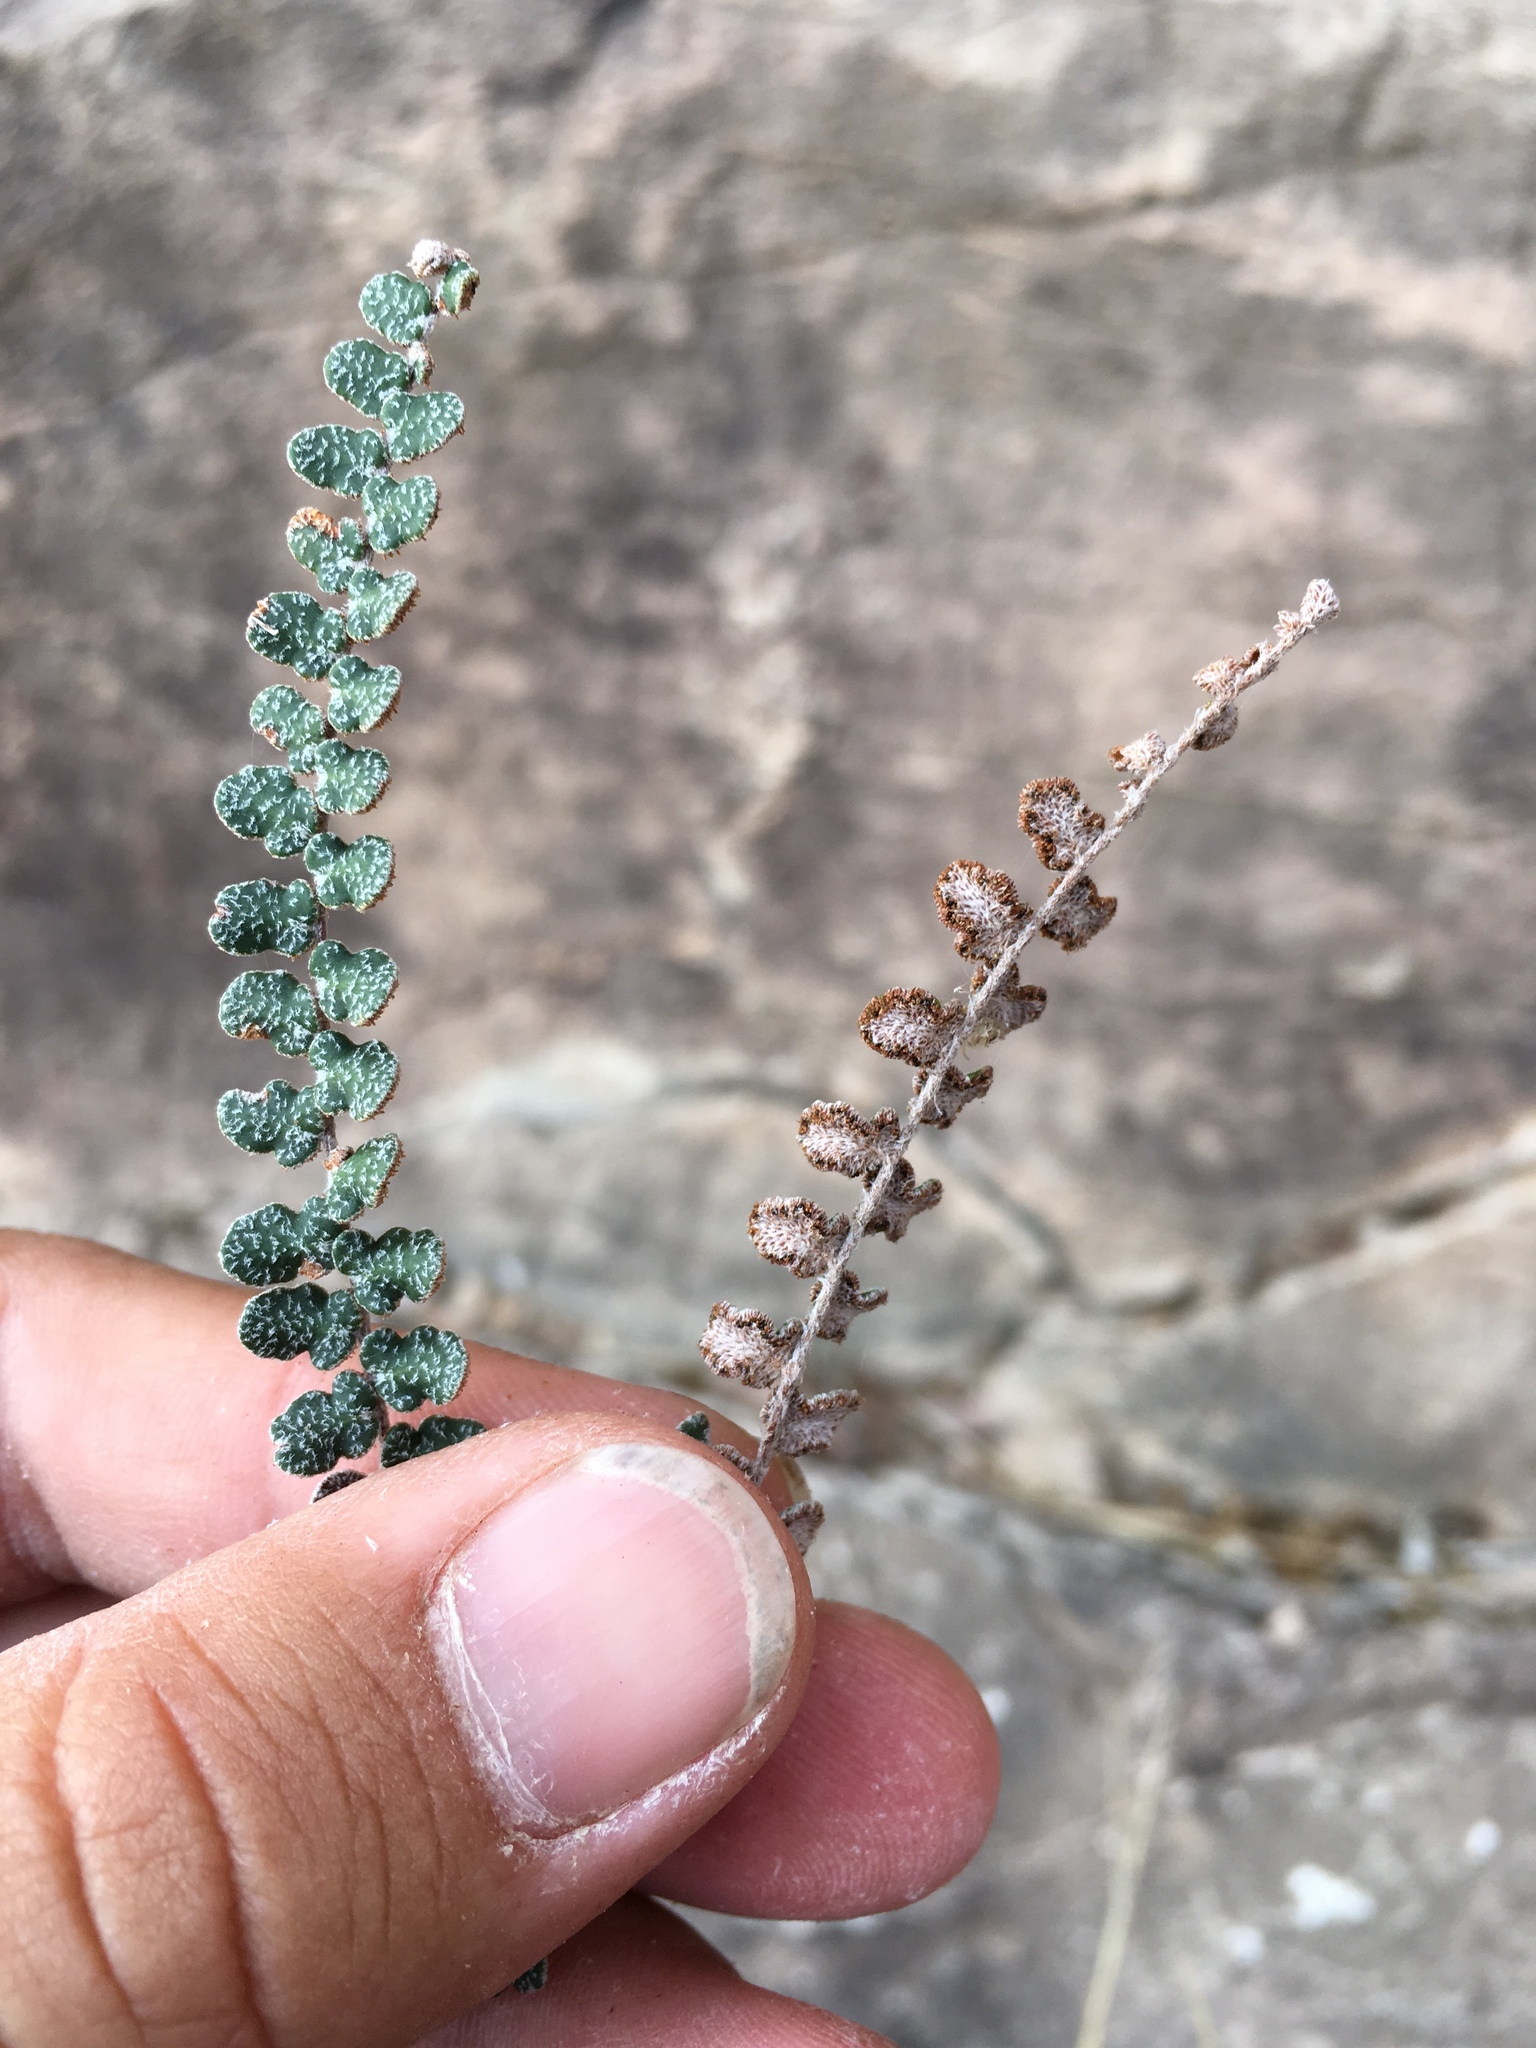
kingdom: Plantae
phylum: Tracheophyta
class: Polypodiopsida
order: Polypodiales
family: Pteridaceae
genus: Astrolepis
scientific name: Astrolepis cochisensis
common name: Scaly cloak fern
